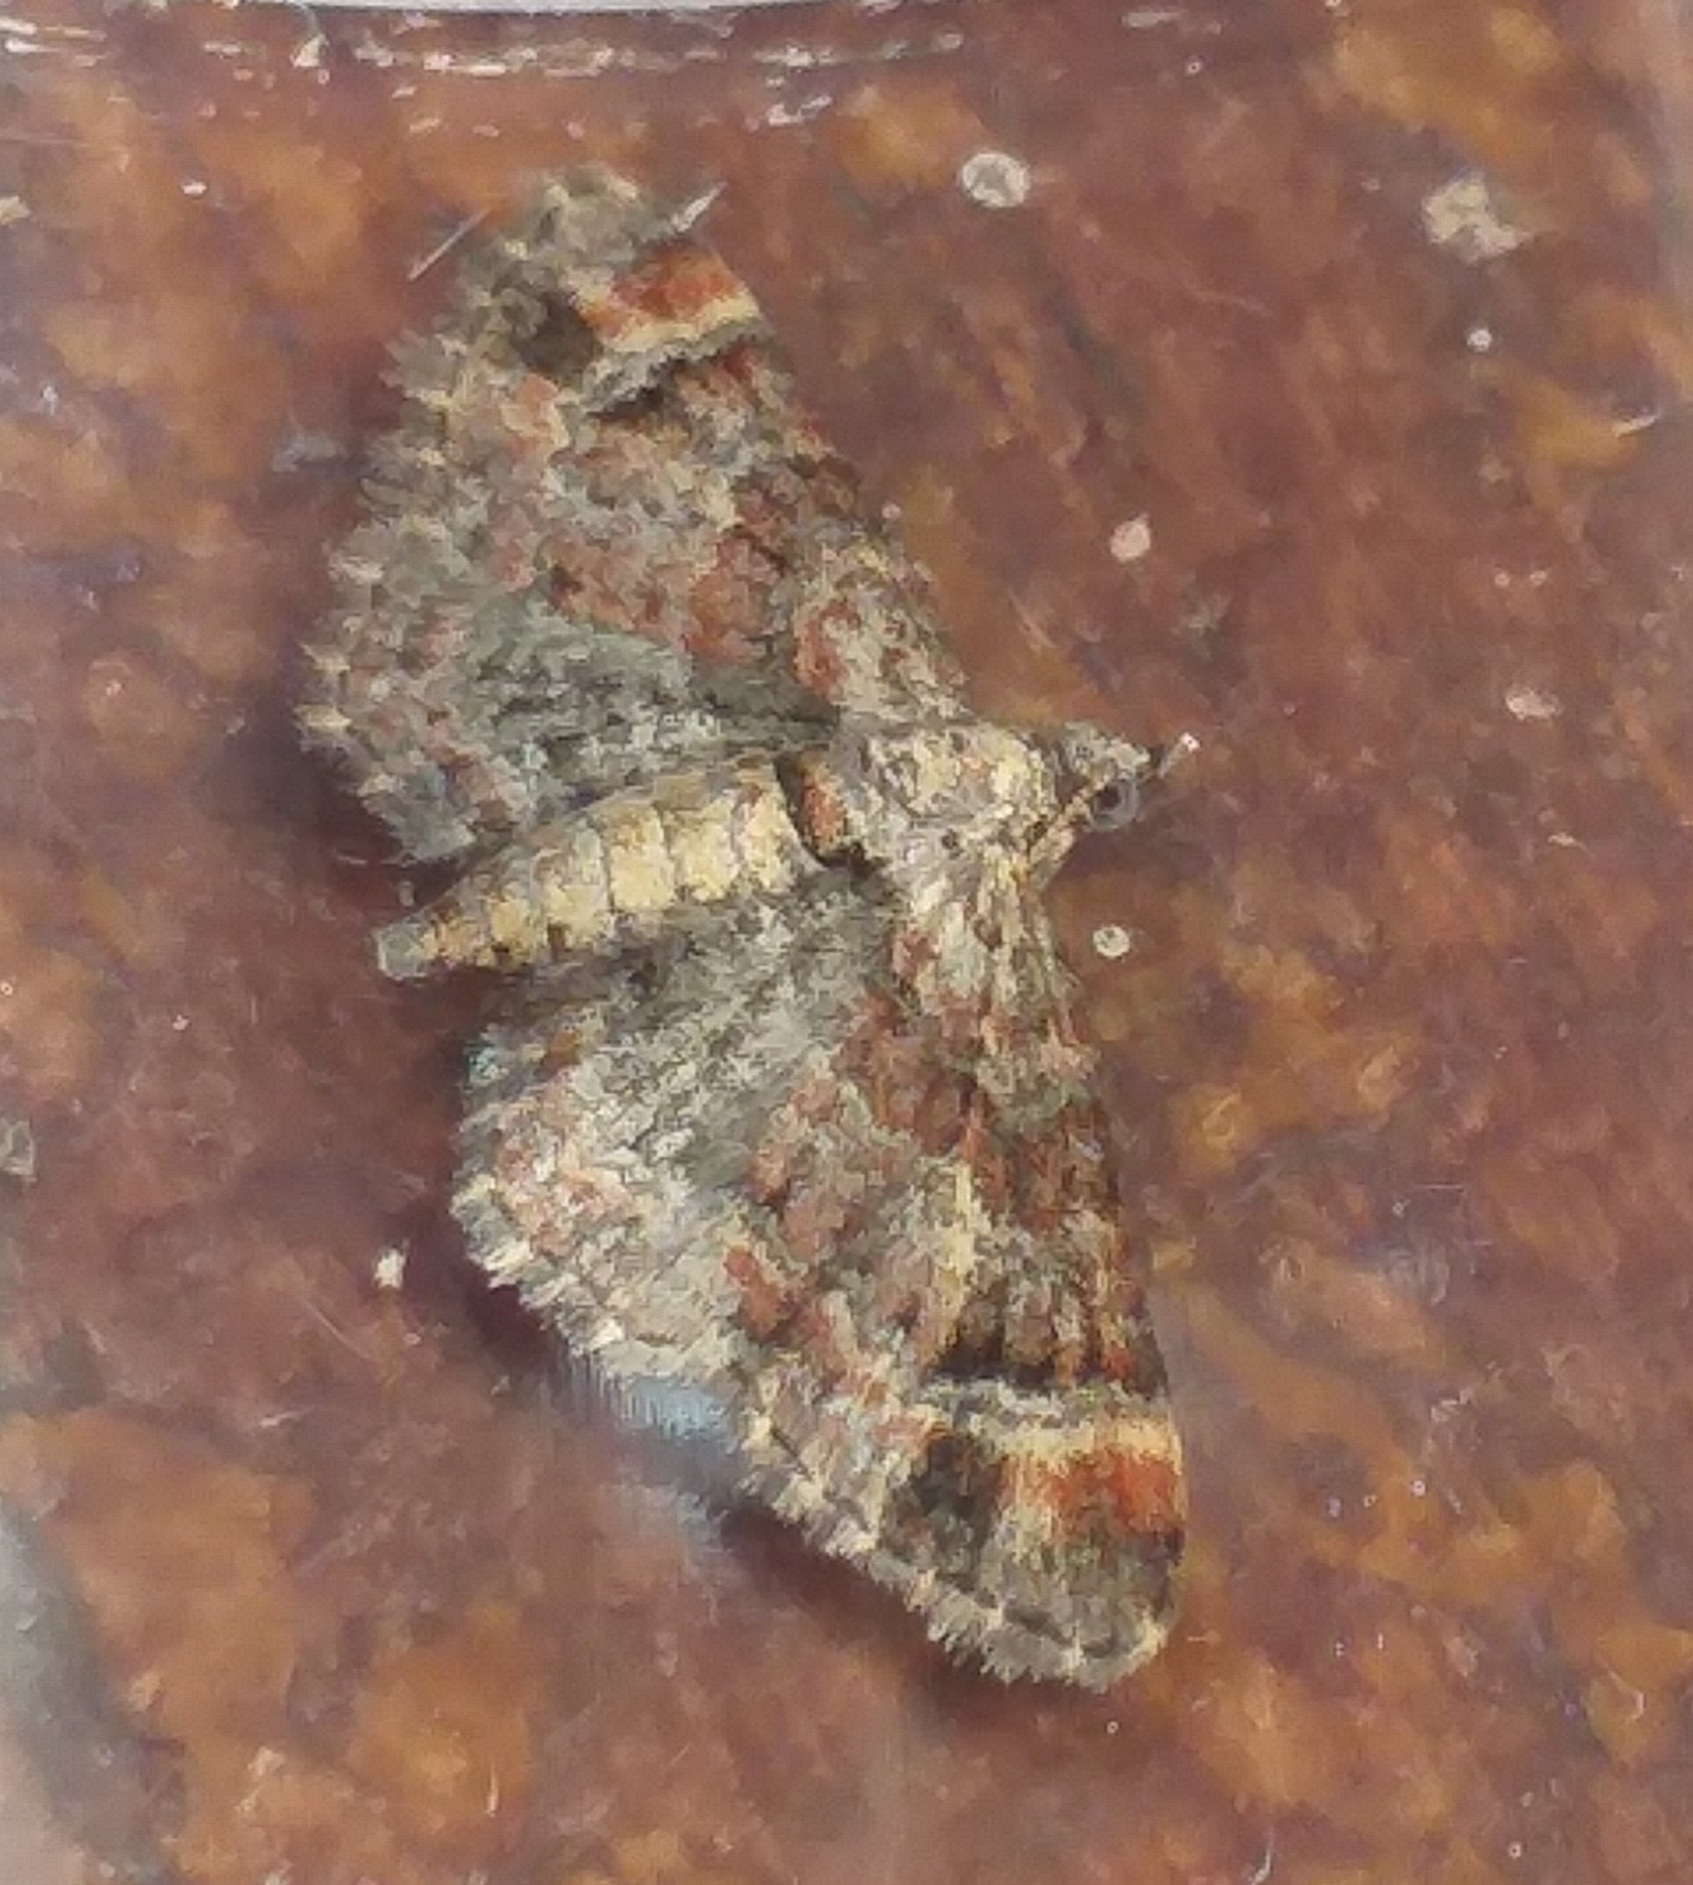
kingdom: Animalia
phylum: Arthropoda
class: Insecta
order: Lepidoptera
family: Geometridae
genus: Gymnoscelis
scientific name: Gymnoscelis rufifasciata
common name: Double-striped pug
